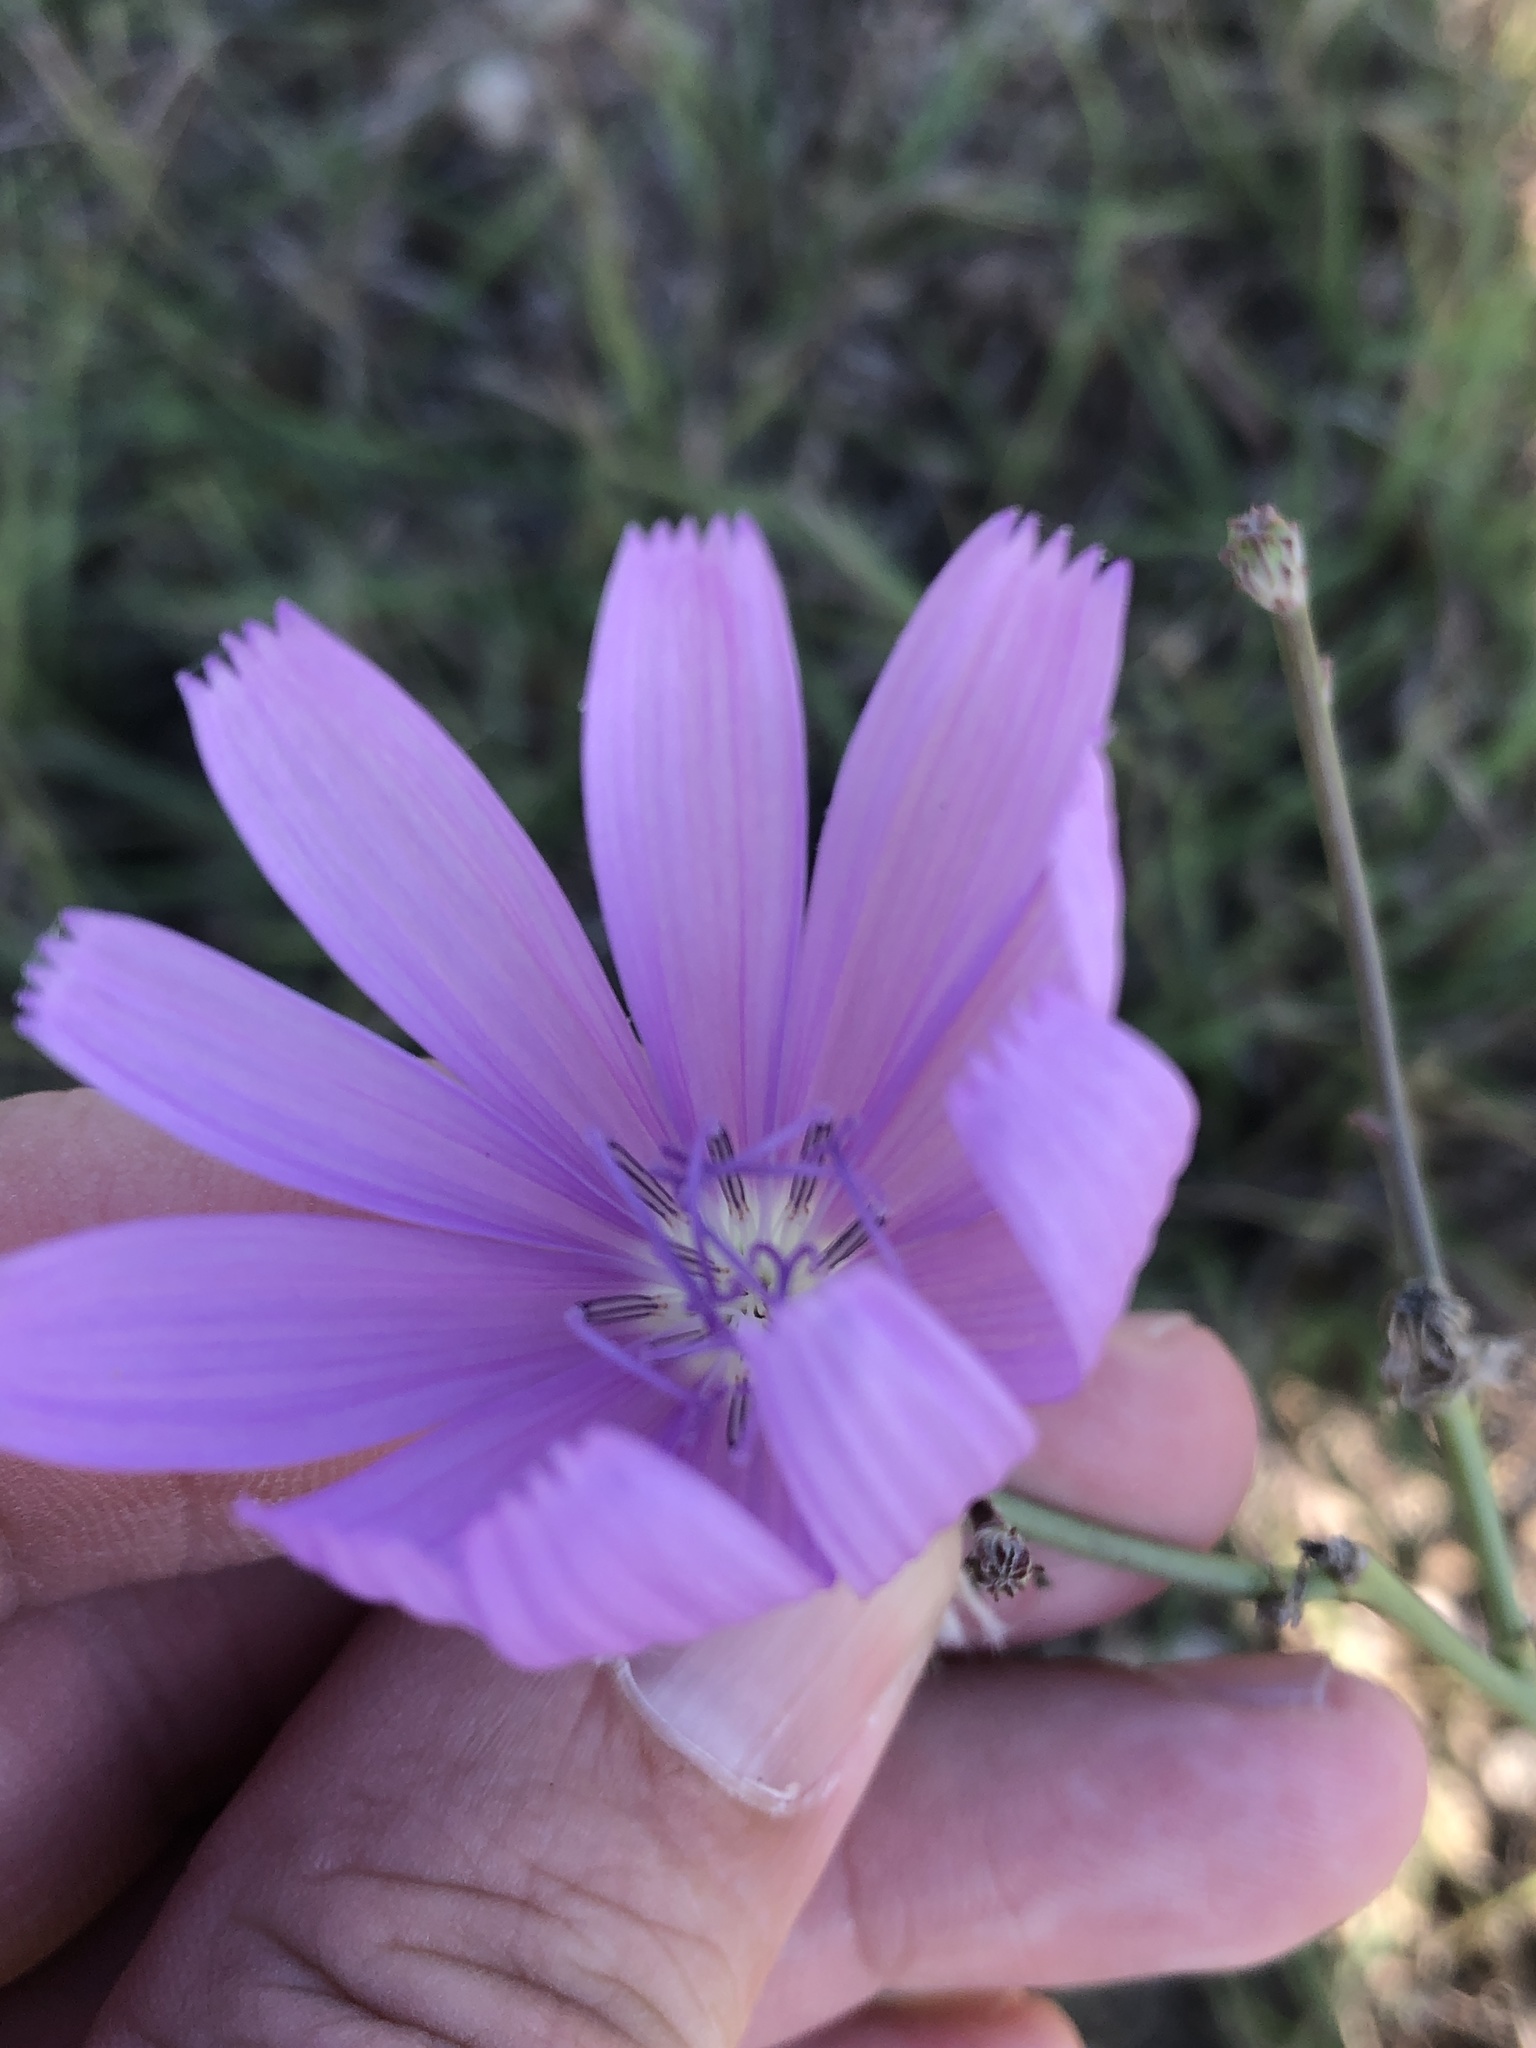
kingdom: Plantae
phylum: Tracheophyta
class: Magnoliopsida
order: Asterales
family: Asteraceae
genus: Lygodesmia
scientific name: Lygodesmia texana
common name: Texas skeleton-plant
